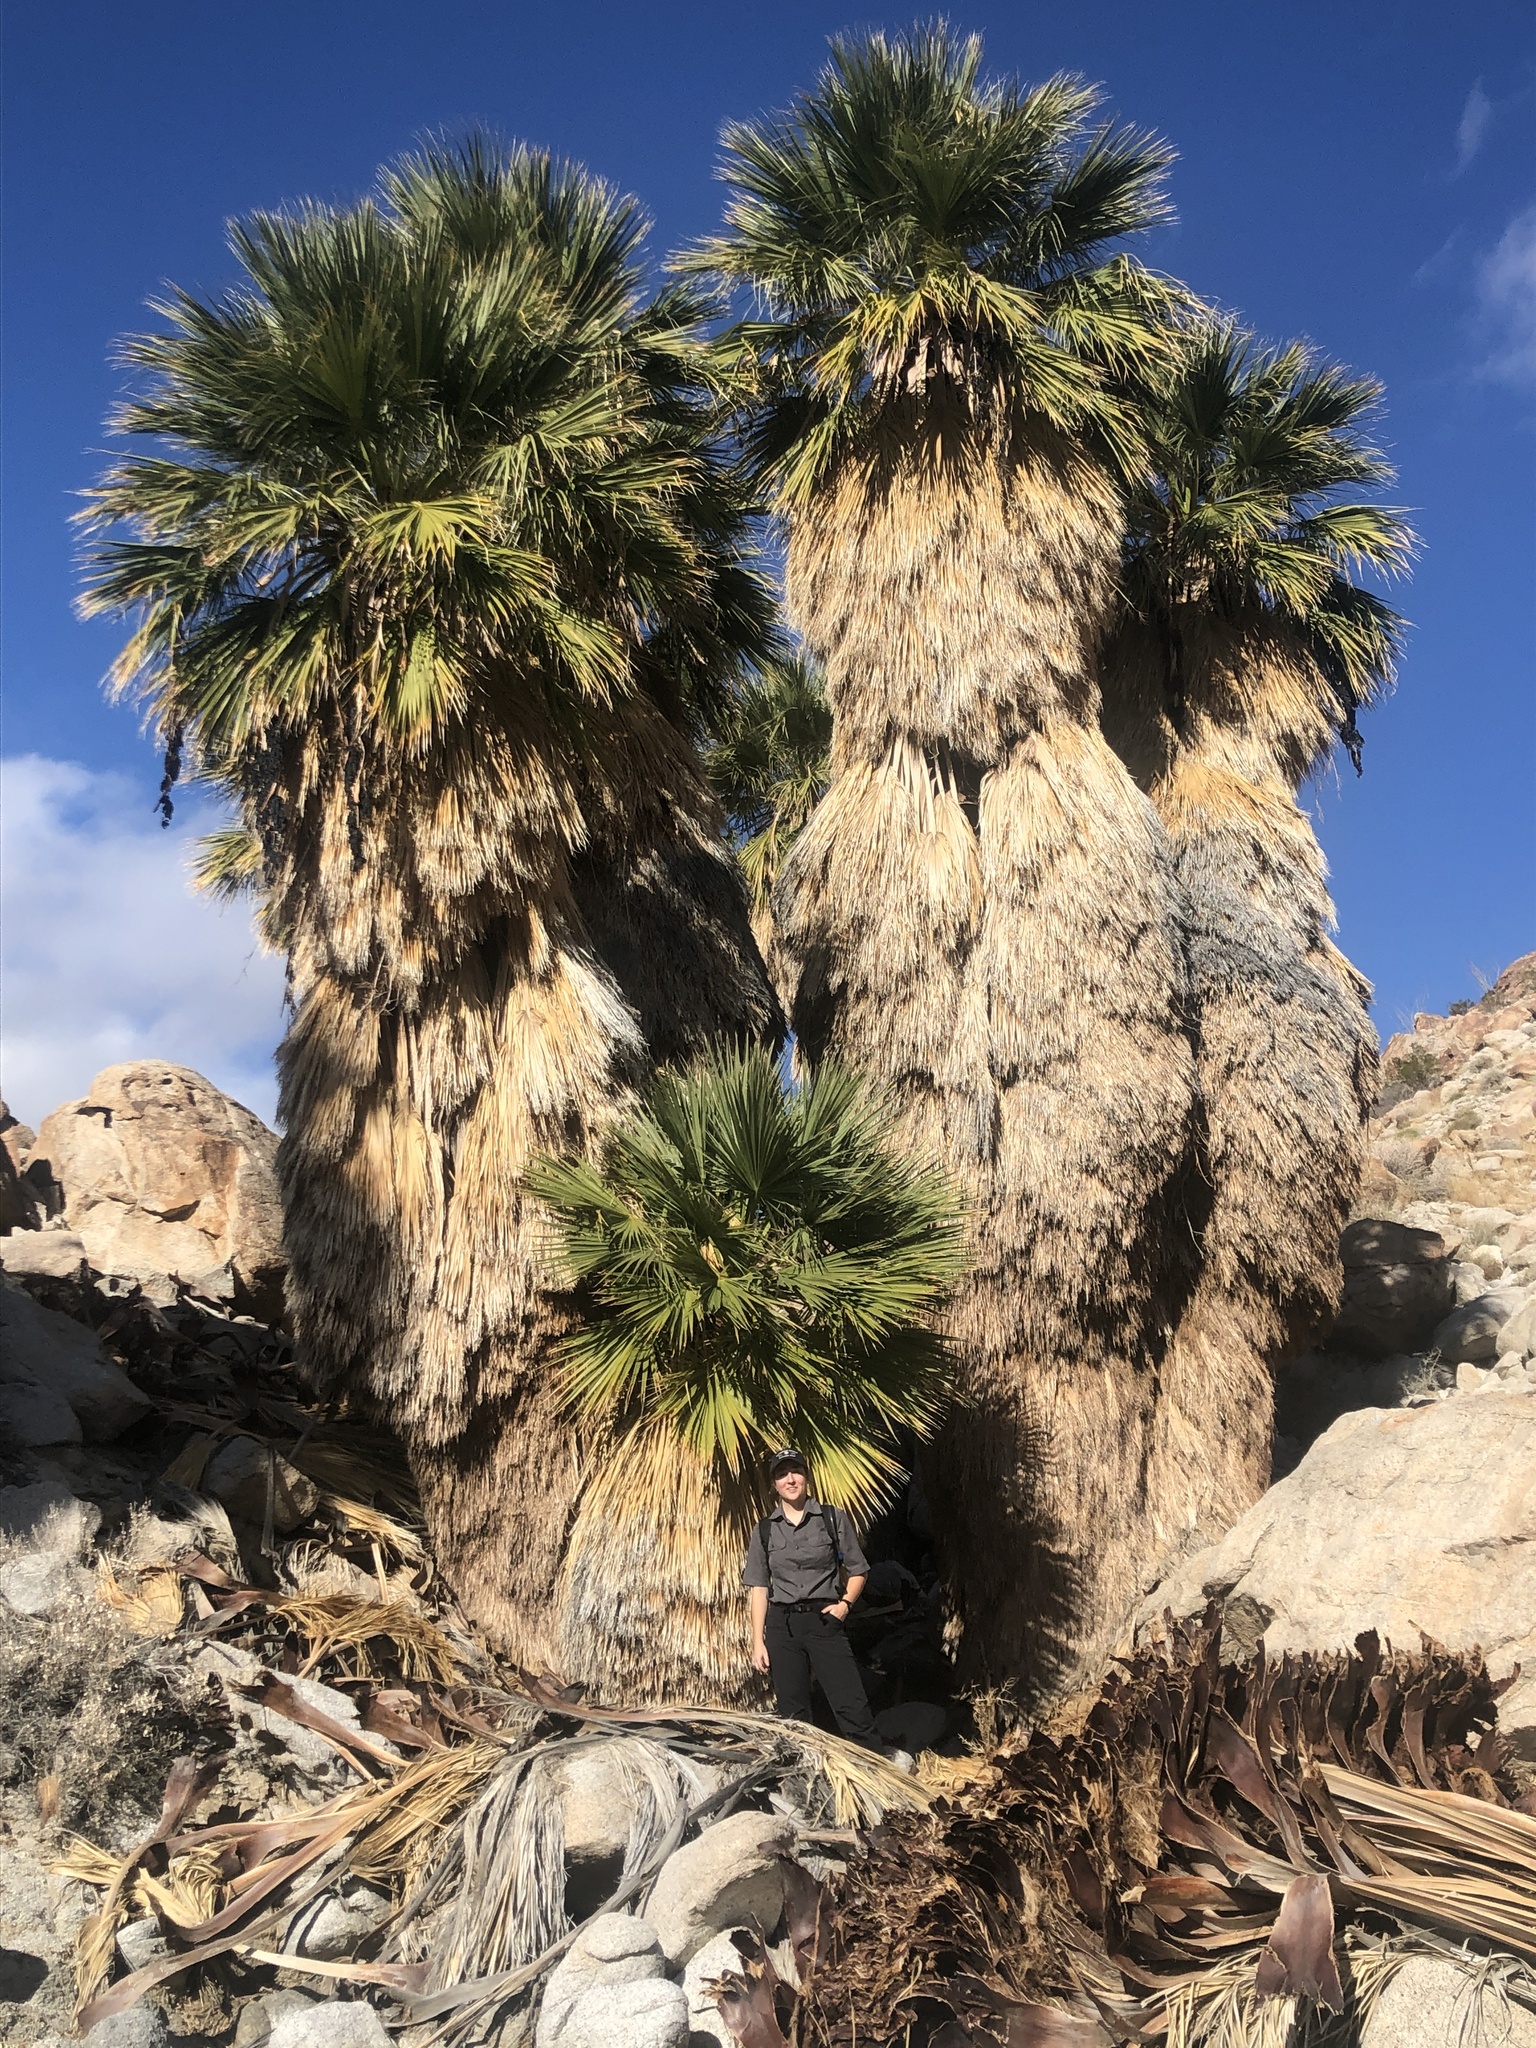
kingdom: Plantae
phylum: Tracheophyta
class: Liliopsida
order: Arecales
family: Arecaceae
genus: Washingtonia
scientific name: Washingtonia filifera
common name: California fan palm
